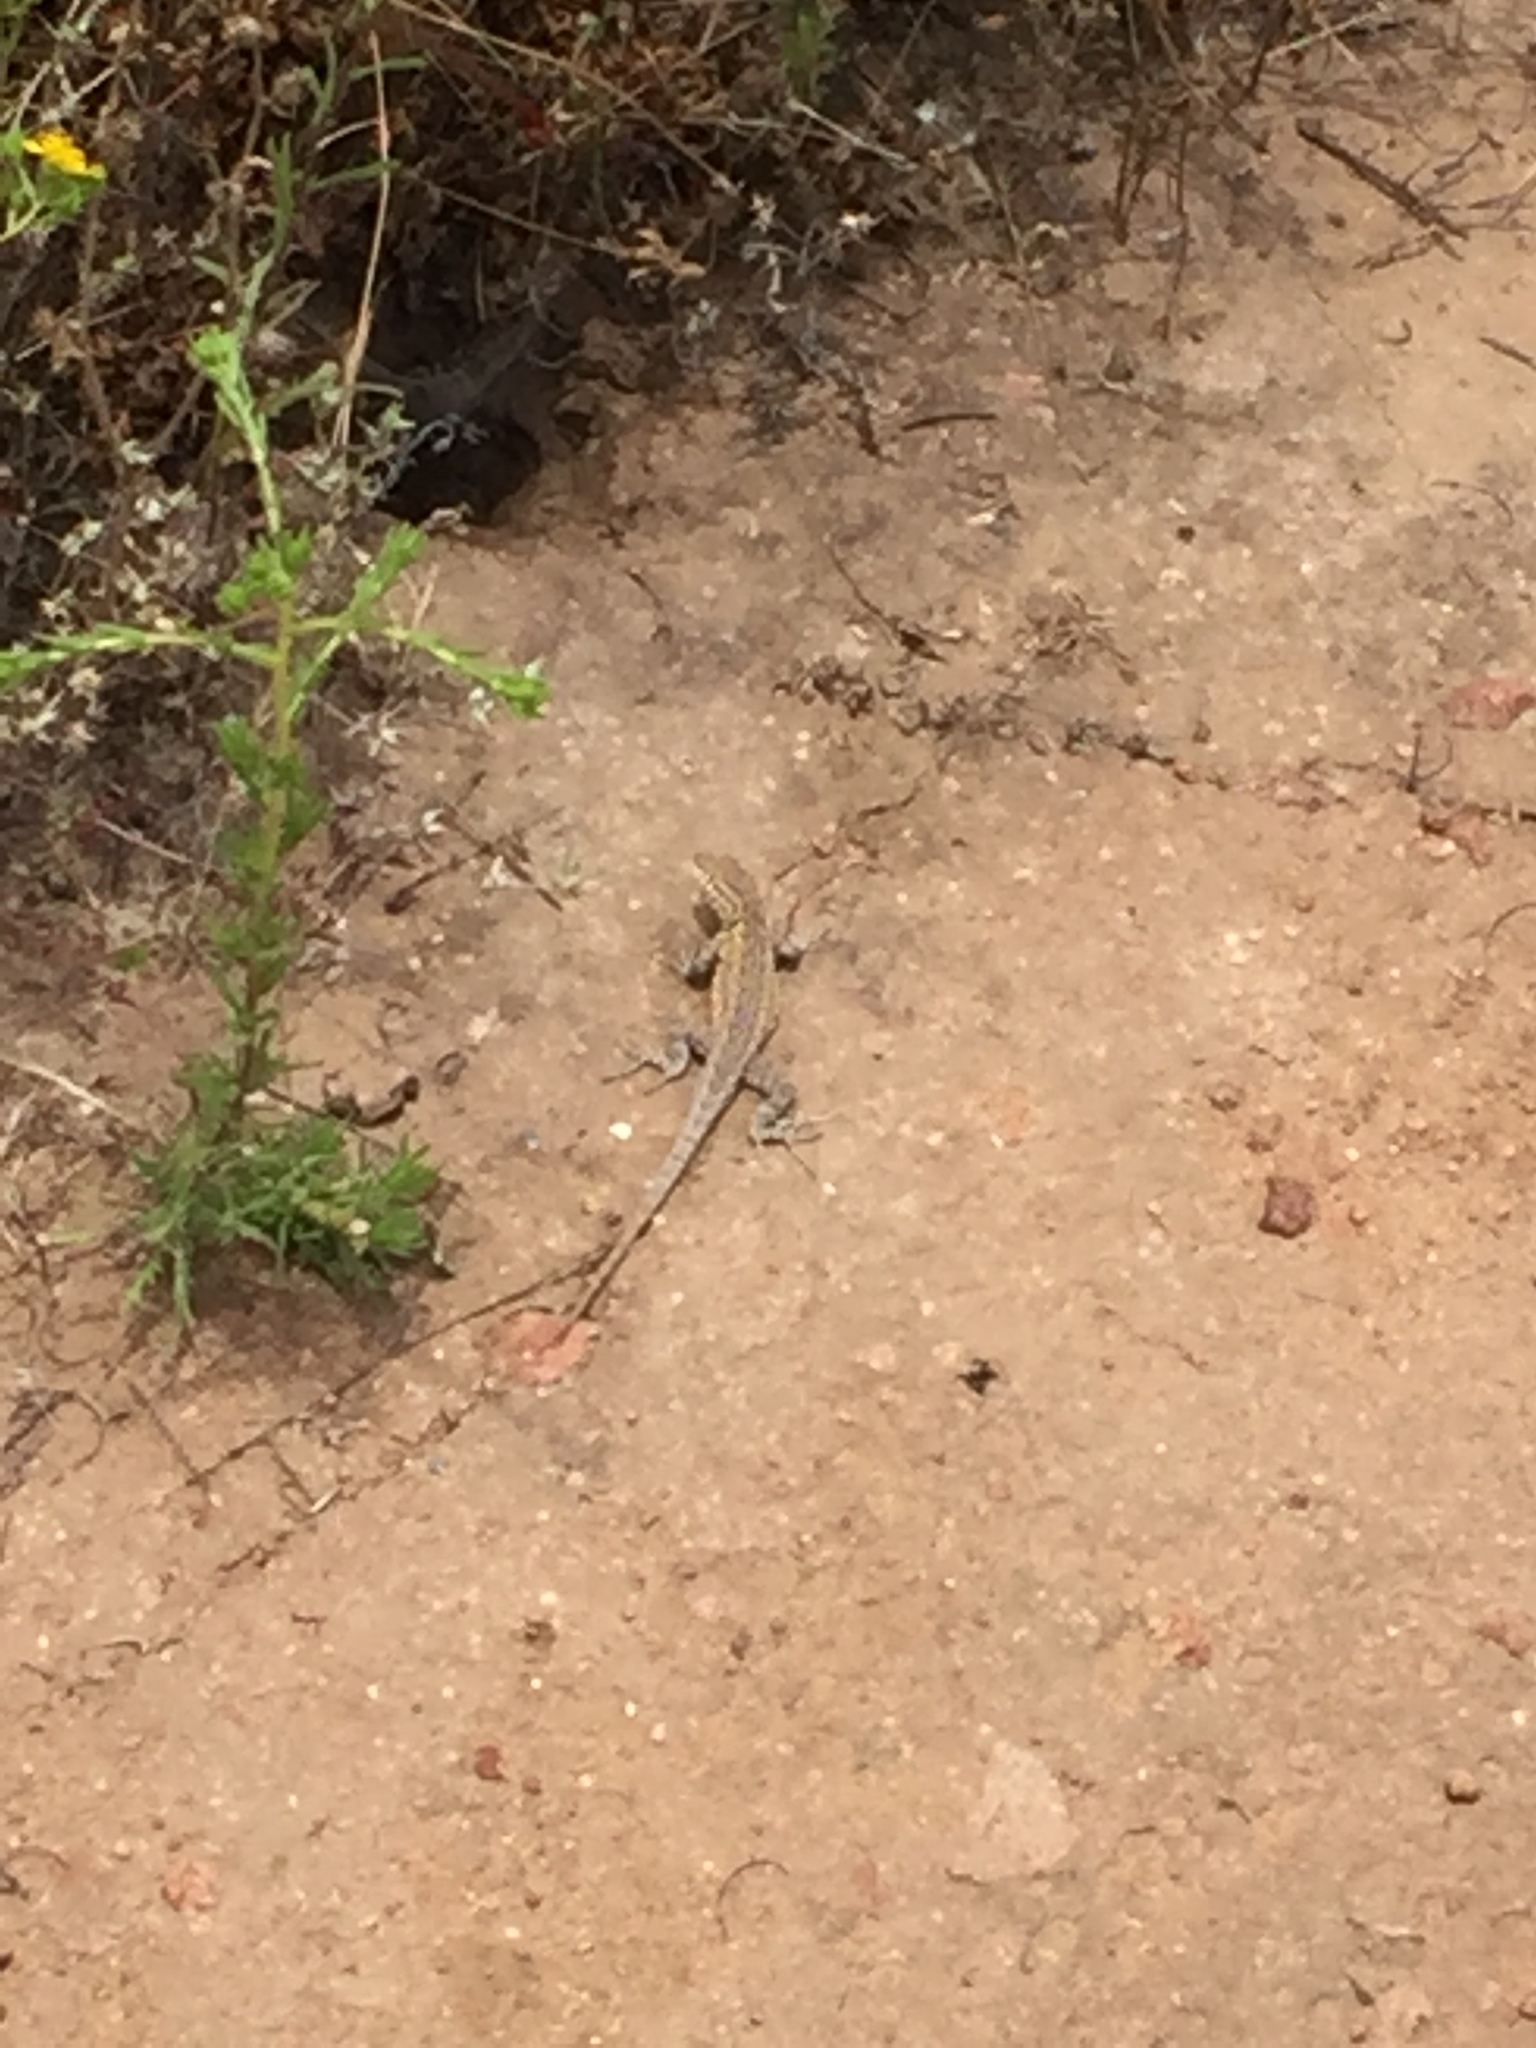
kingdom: Animalia
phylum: Chordata
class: Squamata
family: Phrynosomatidae
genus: Uta
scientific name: Uta stansburiana
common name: Side-blotched lizard
